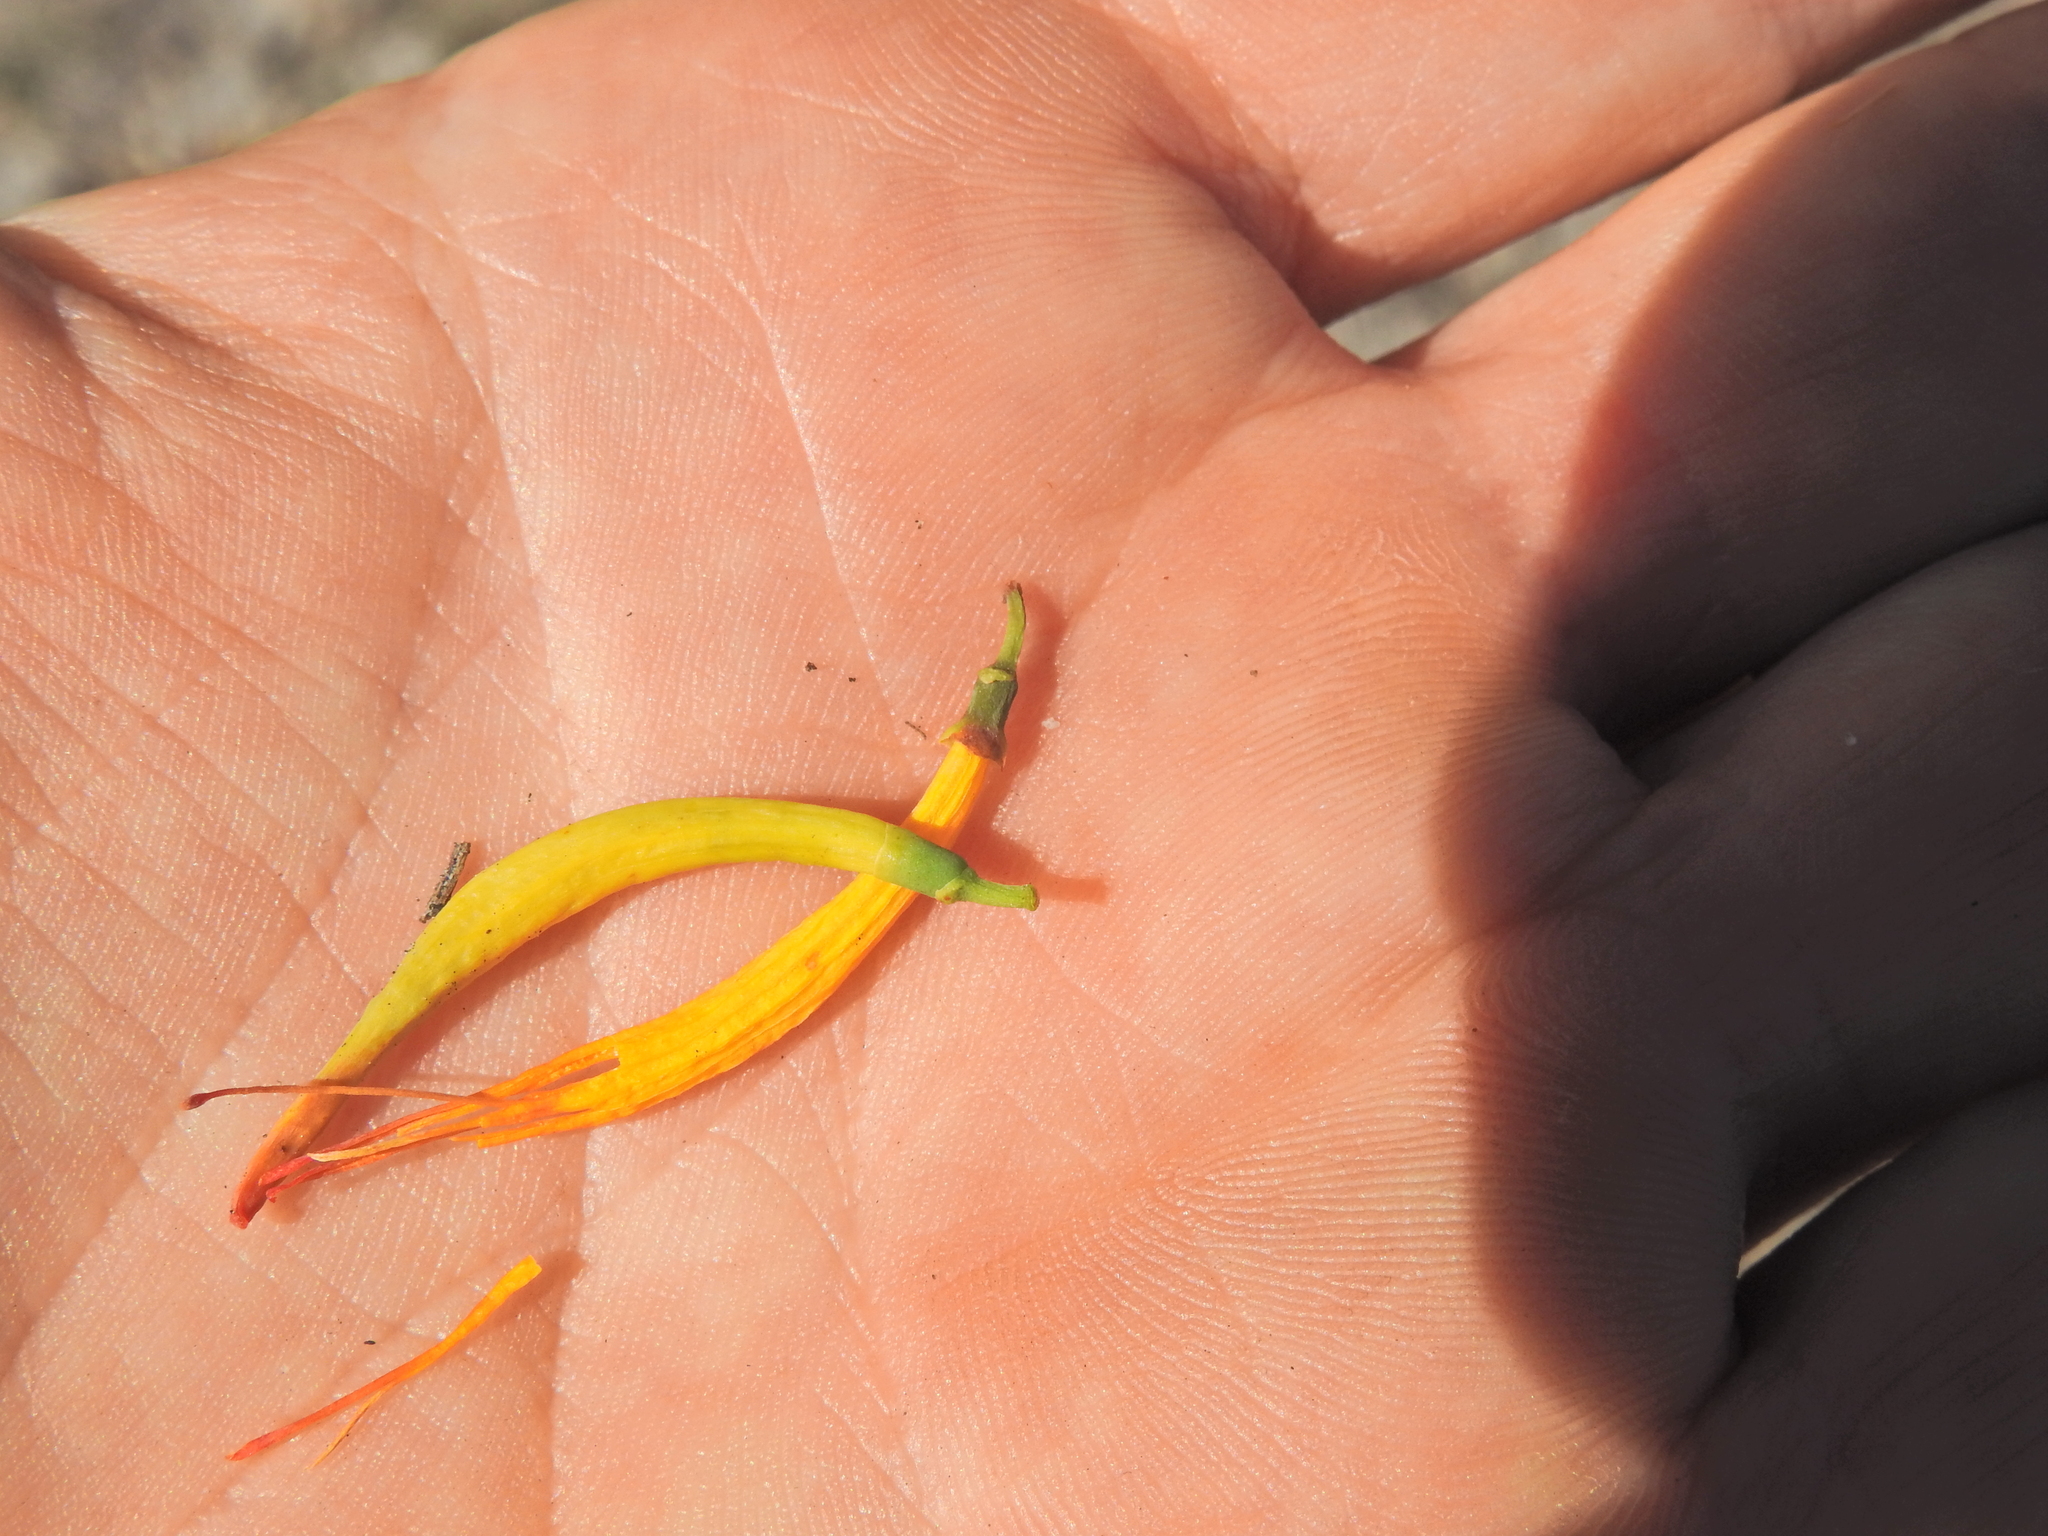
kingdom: Plantae
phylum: Tracheophyta
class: Magnoliopsida
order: Santalales
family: Loranthaceae
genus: Dendrophthoe
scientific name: Dendrophthoe glabrescens
